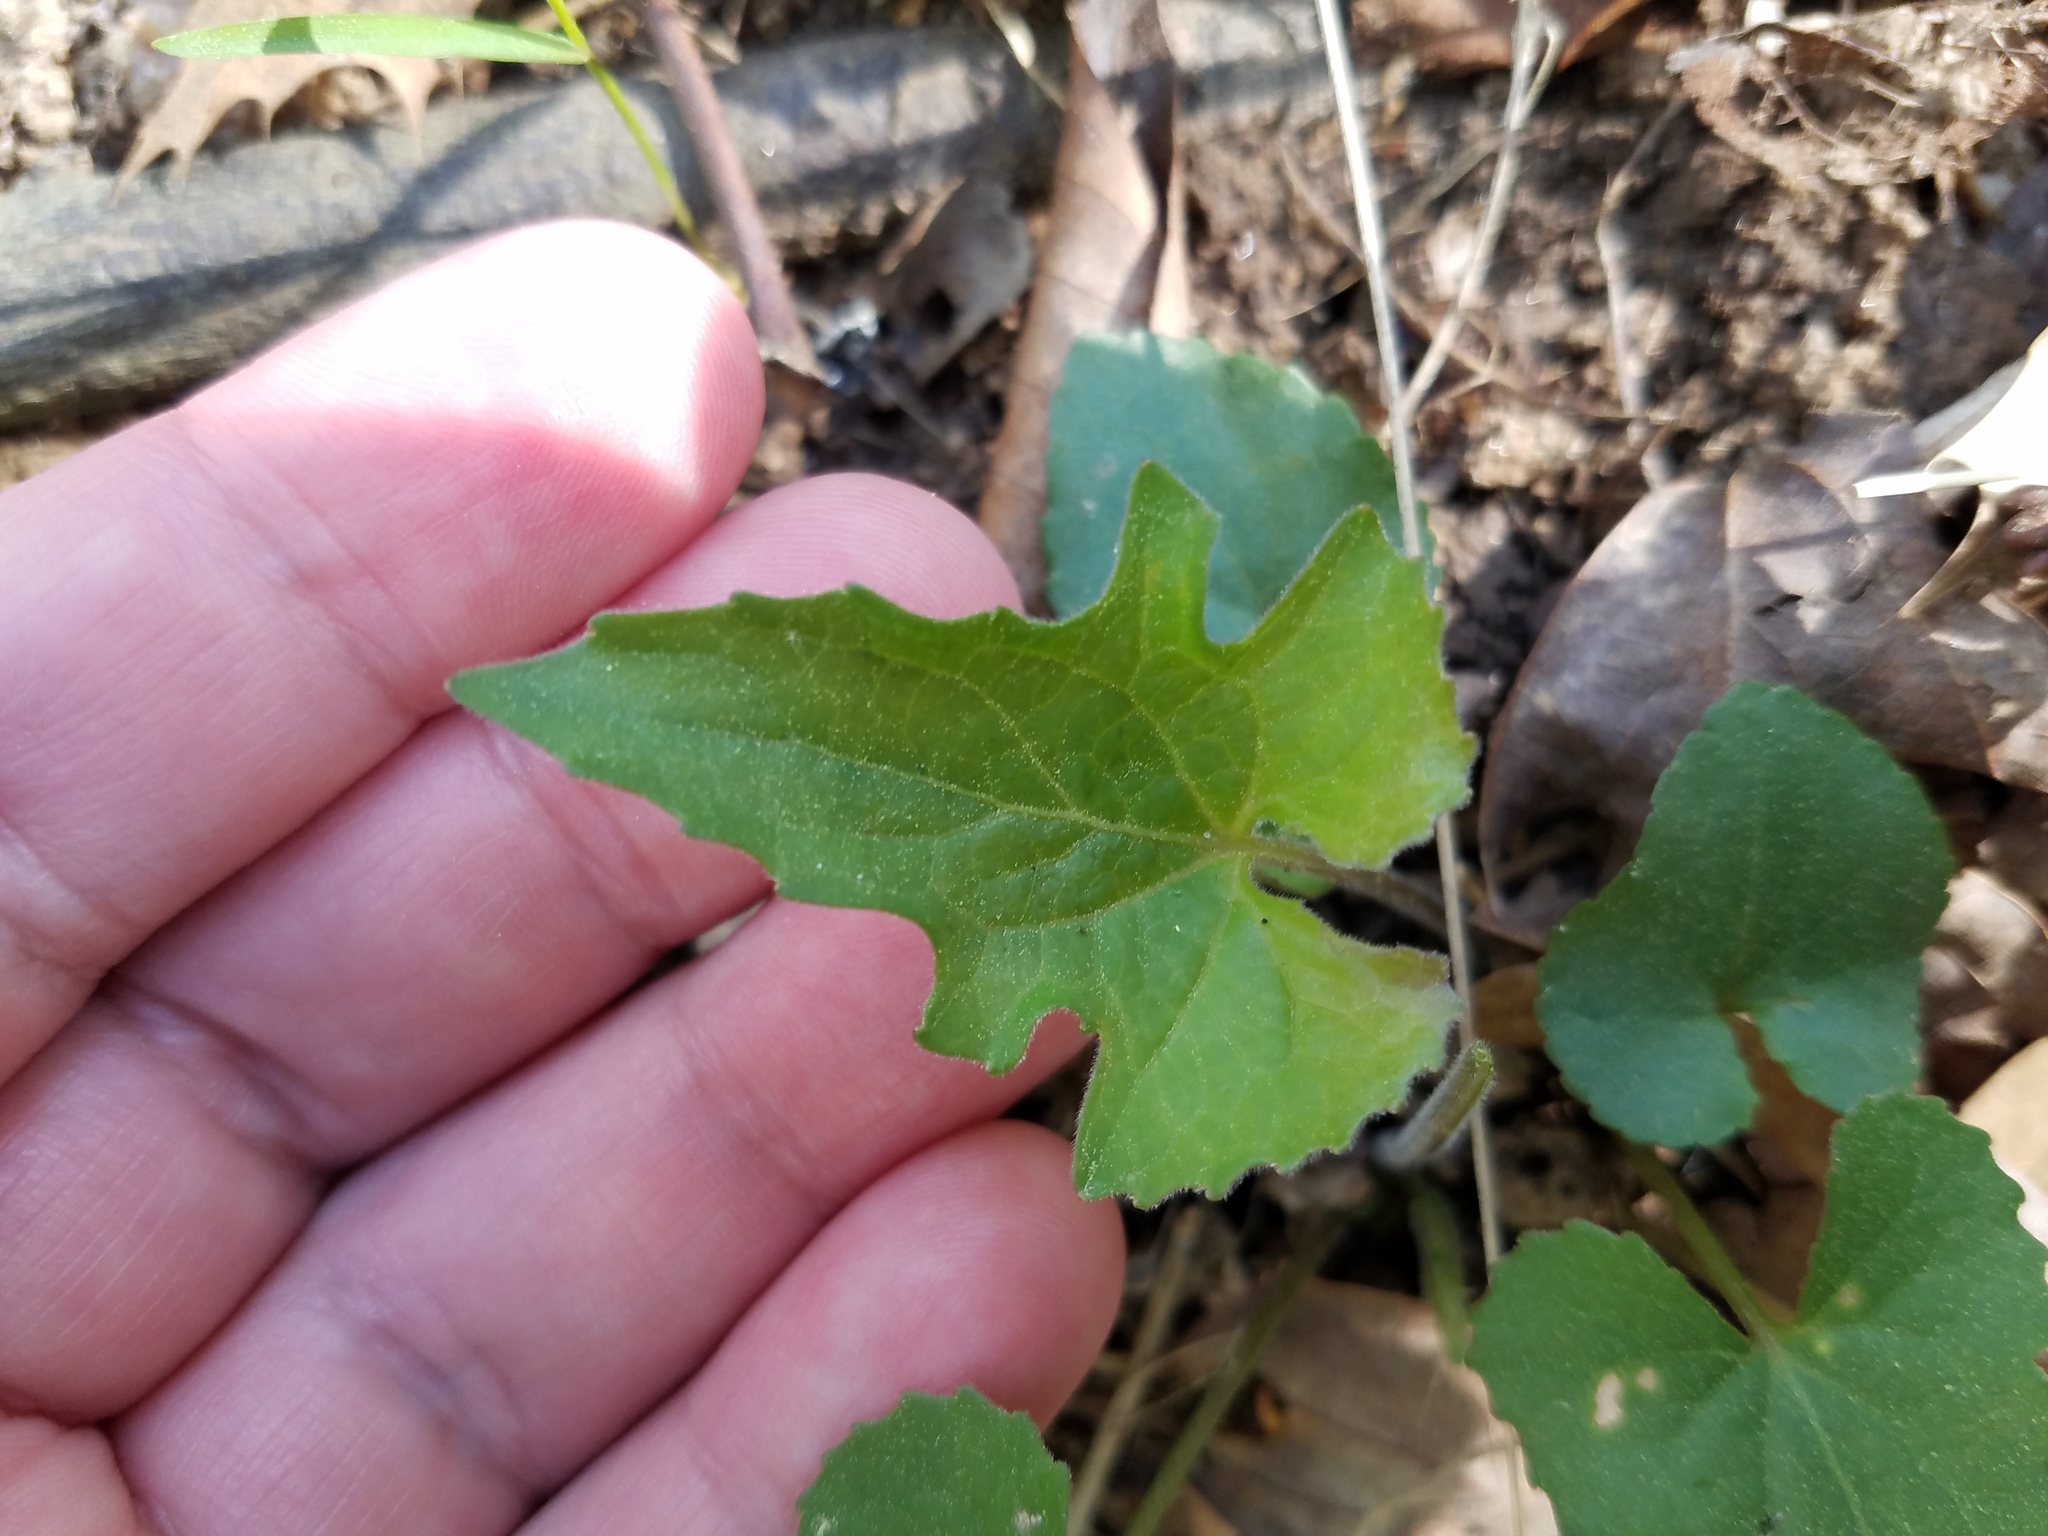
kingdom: Plantae
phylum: Tracheophyta
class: Magnoliopsida
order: Malpighiales
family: Violaceae
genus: Viola
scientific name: Viola palmata
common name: Early blue violet
